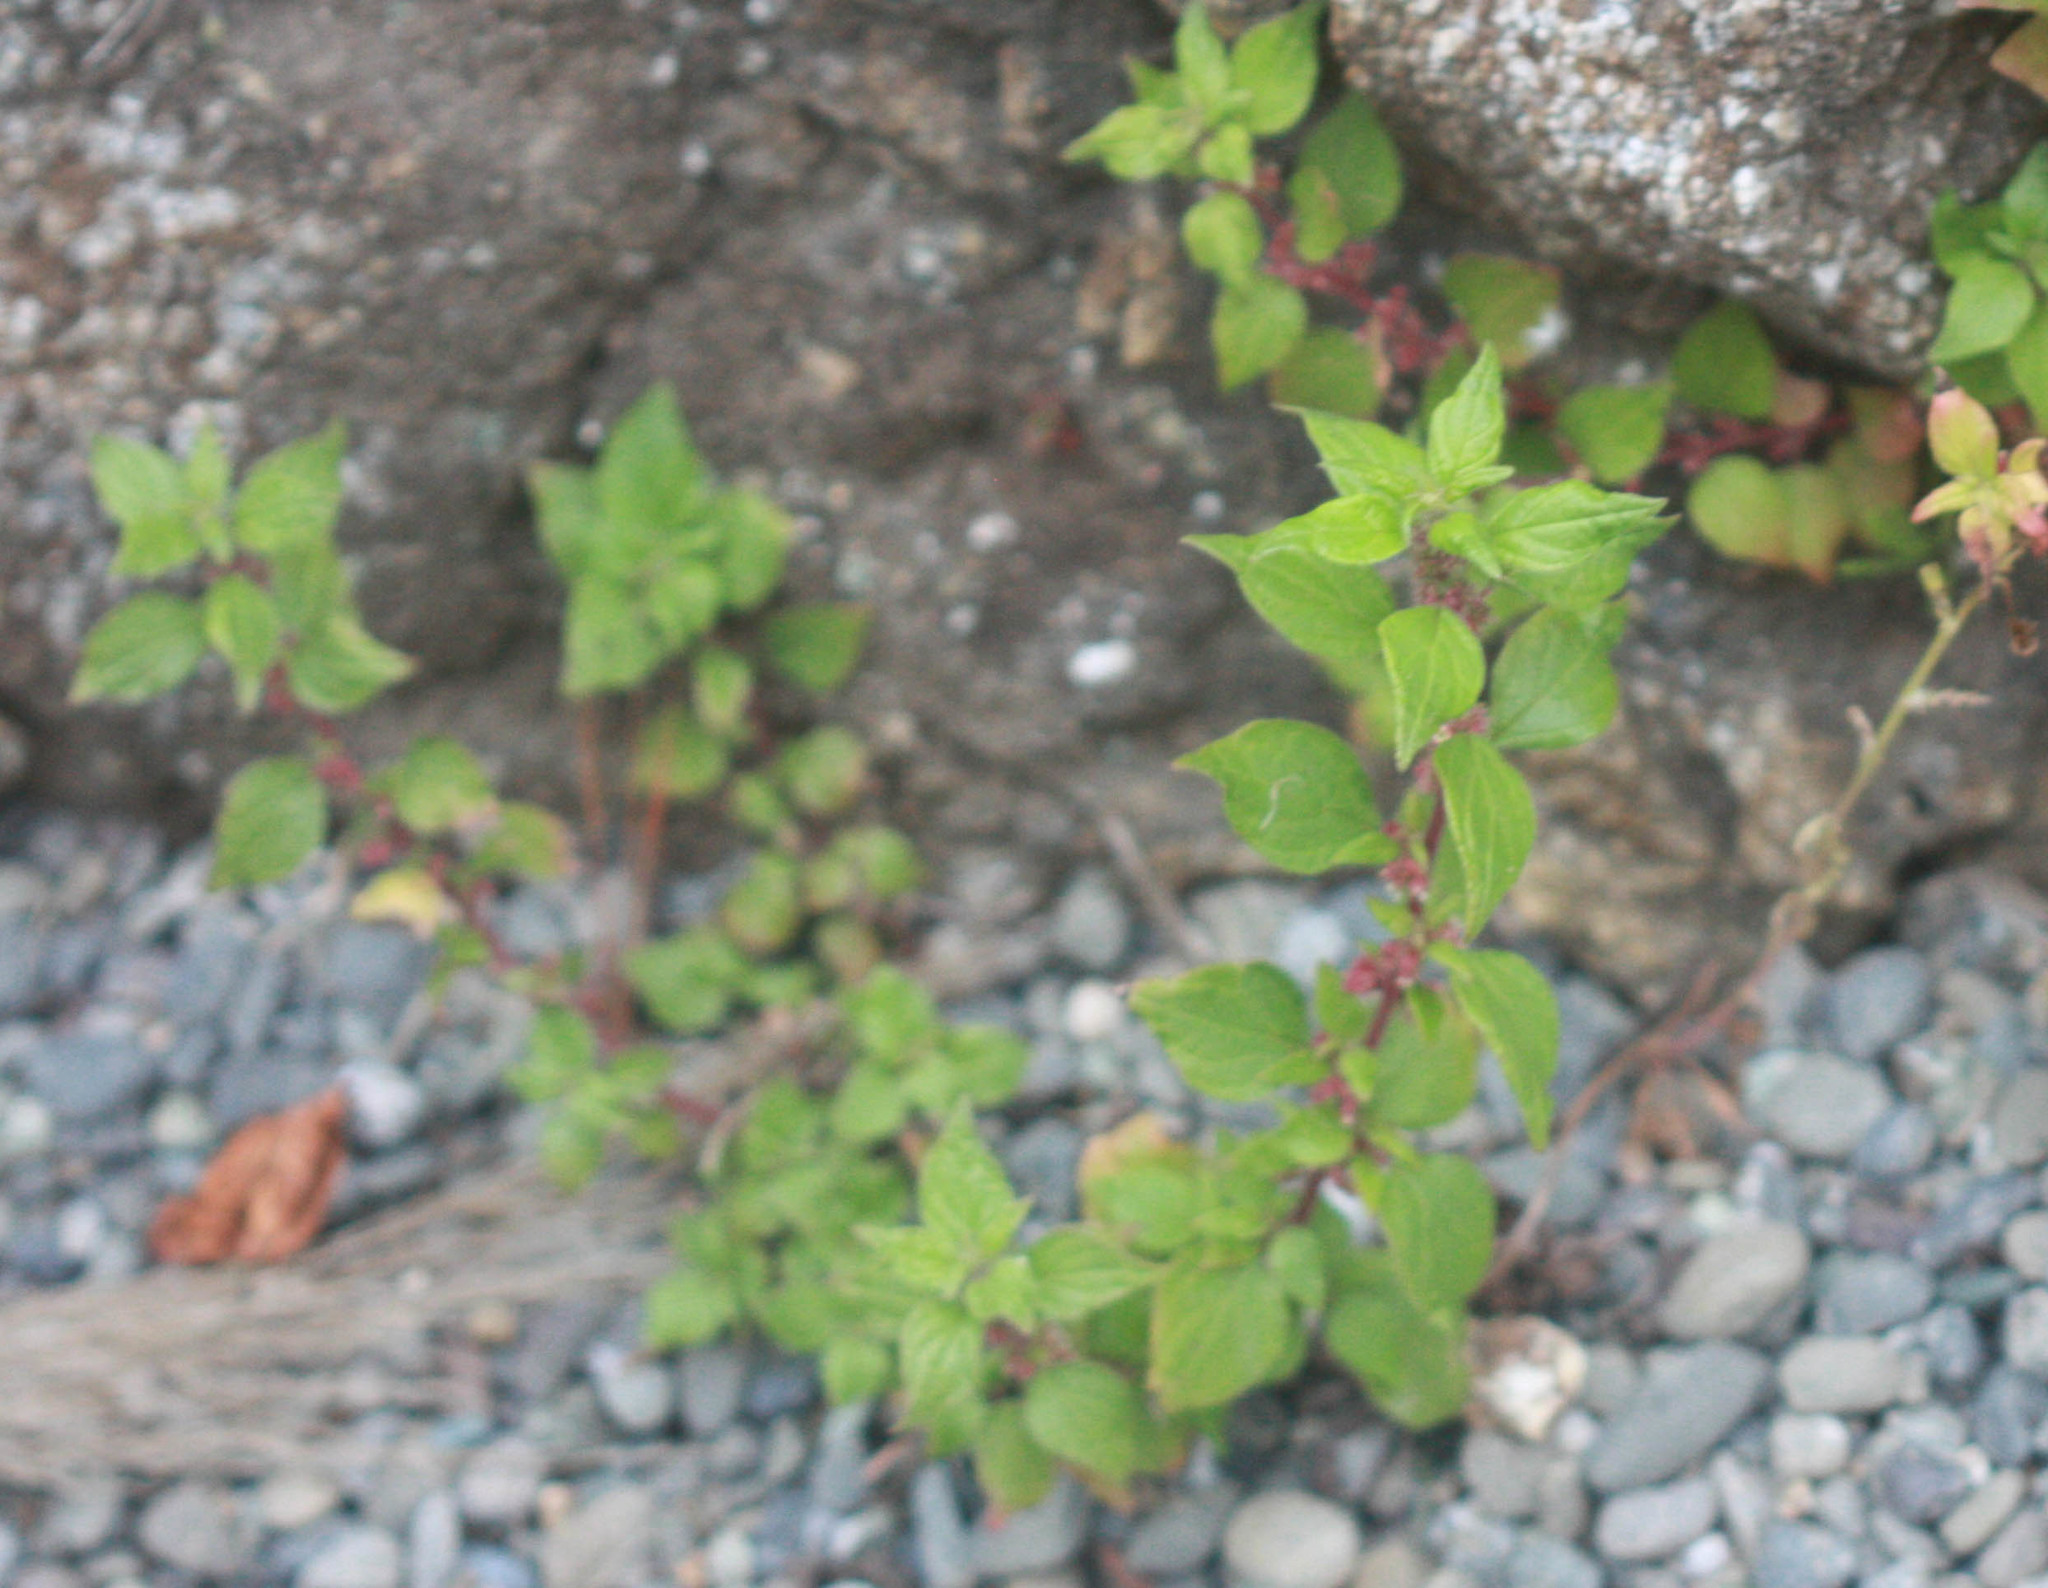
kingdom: Plantae
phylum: Tracheophyta
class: Magnoliopsida
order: Rosales
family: Urticaceae
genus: Parietaria
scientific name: Parietaria judaica
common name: Pellitory-of-the-wall
